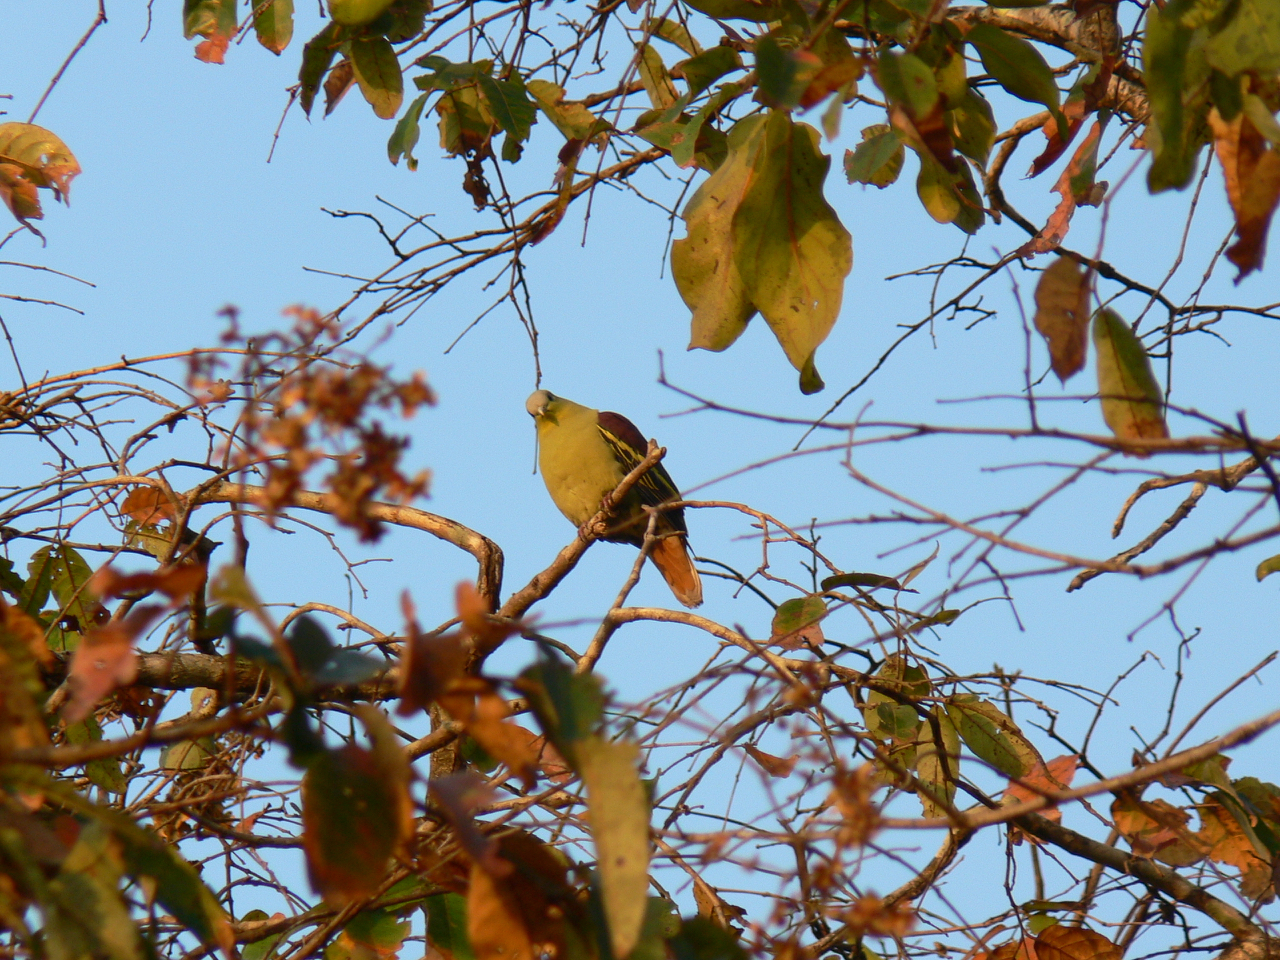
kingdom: Animalia
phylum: Chordata
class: Aves
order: Columbiformes
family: Columbidae
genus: Treron
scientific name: Treron affinis
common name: Grey-fronted green pigeon
